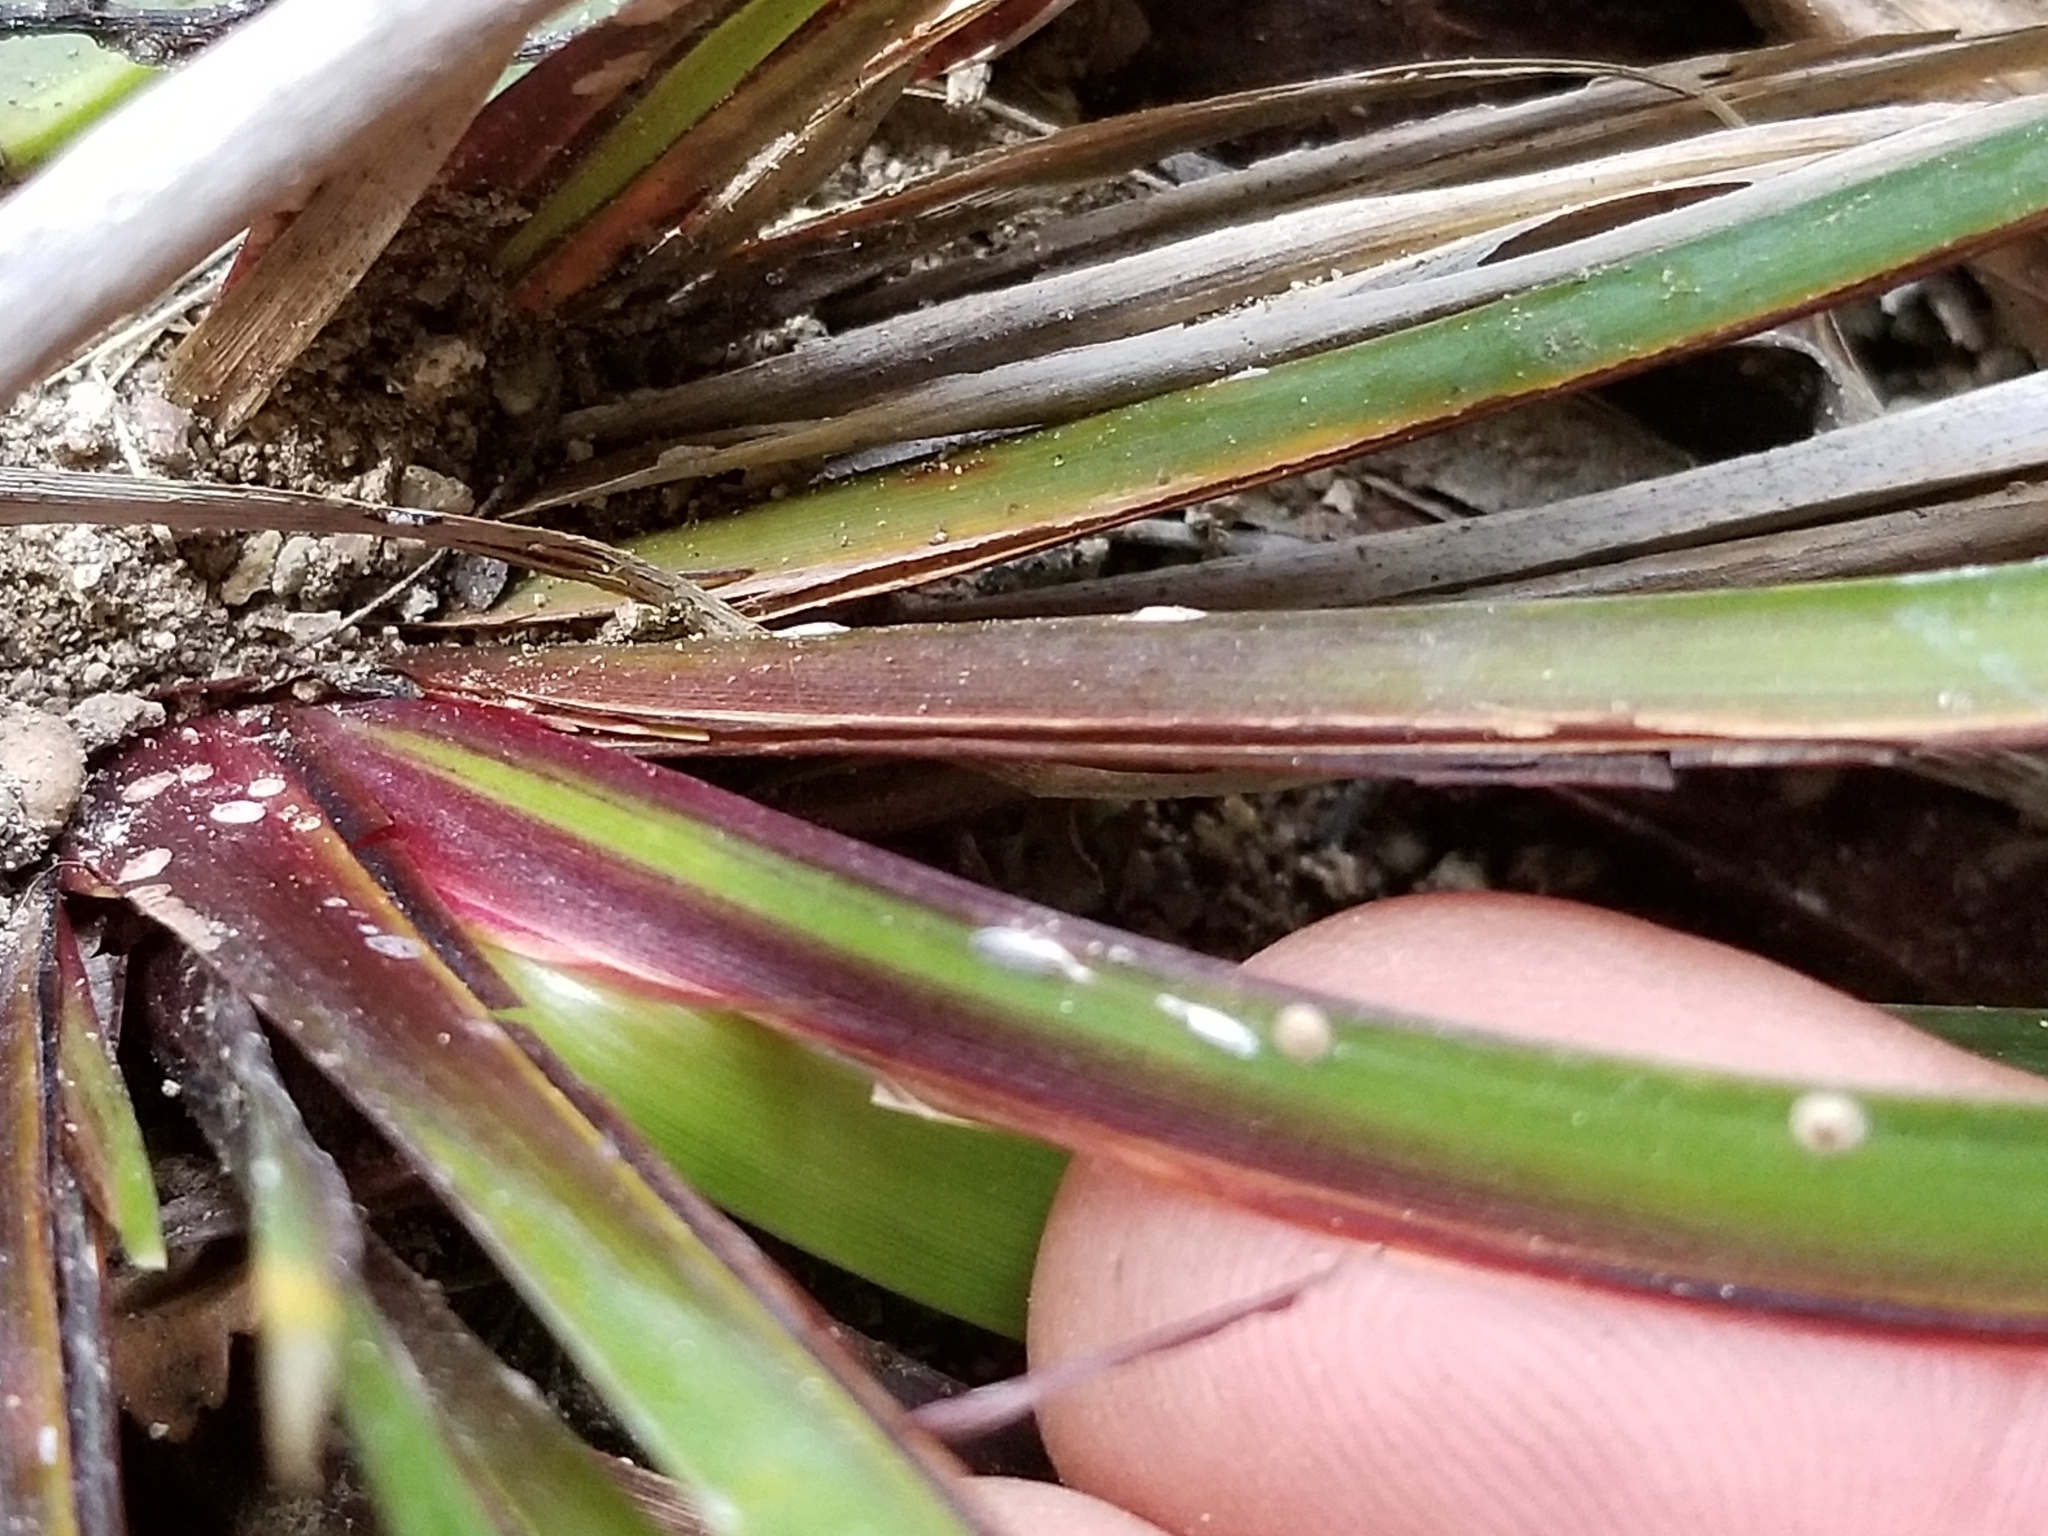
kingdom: Plantae
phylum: Tracheophyta
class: Liliopsida
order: Poales
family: Cyperaceae
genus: Machaerina
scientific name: Machaerina sinclairii
